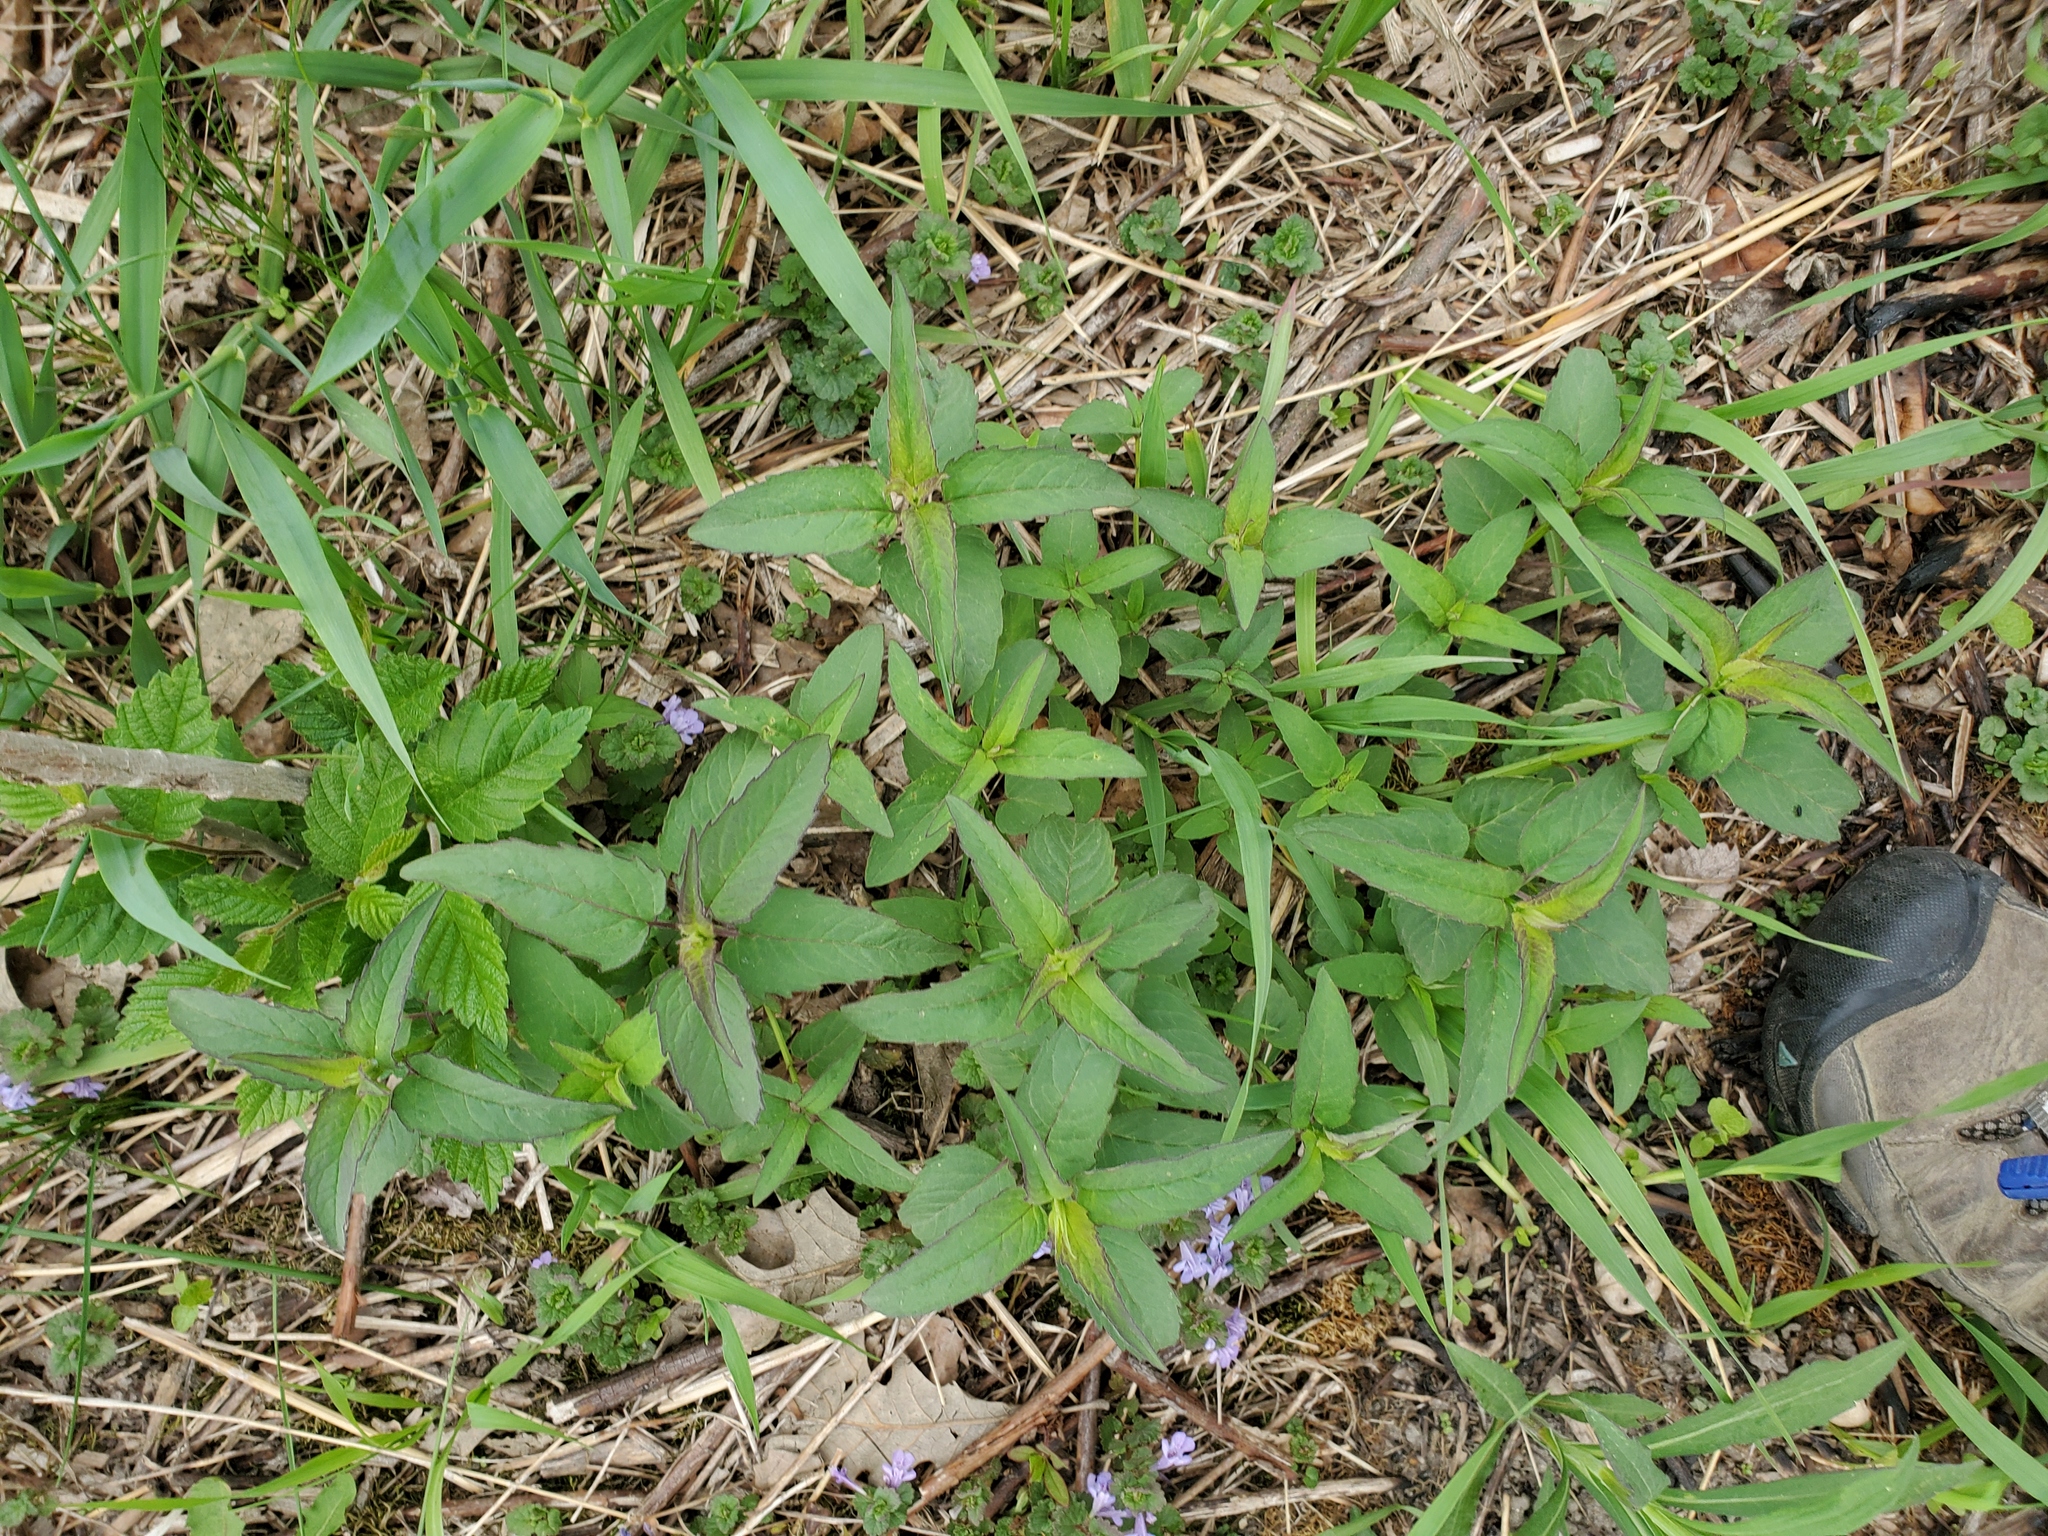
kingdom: Plantae
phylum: Tracheophyta
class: Magnoliopsida
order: Lamiales
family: Lamiaceae
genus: Monarda
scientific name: Monarda fistulosa
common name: Purple beebalm
